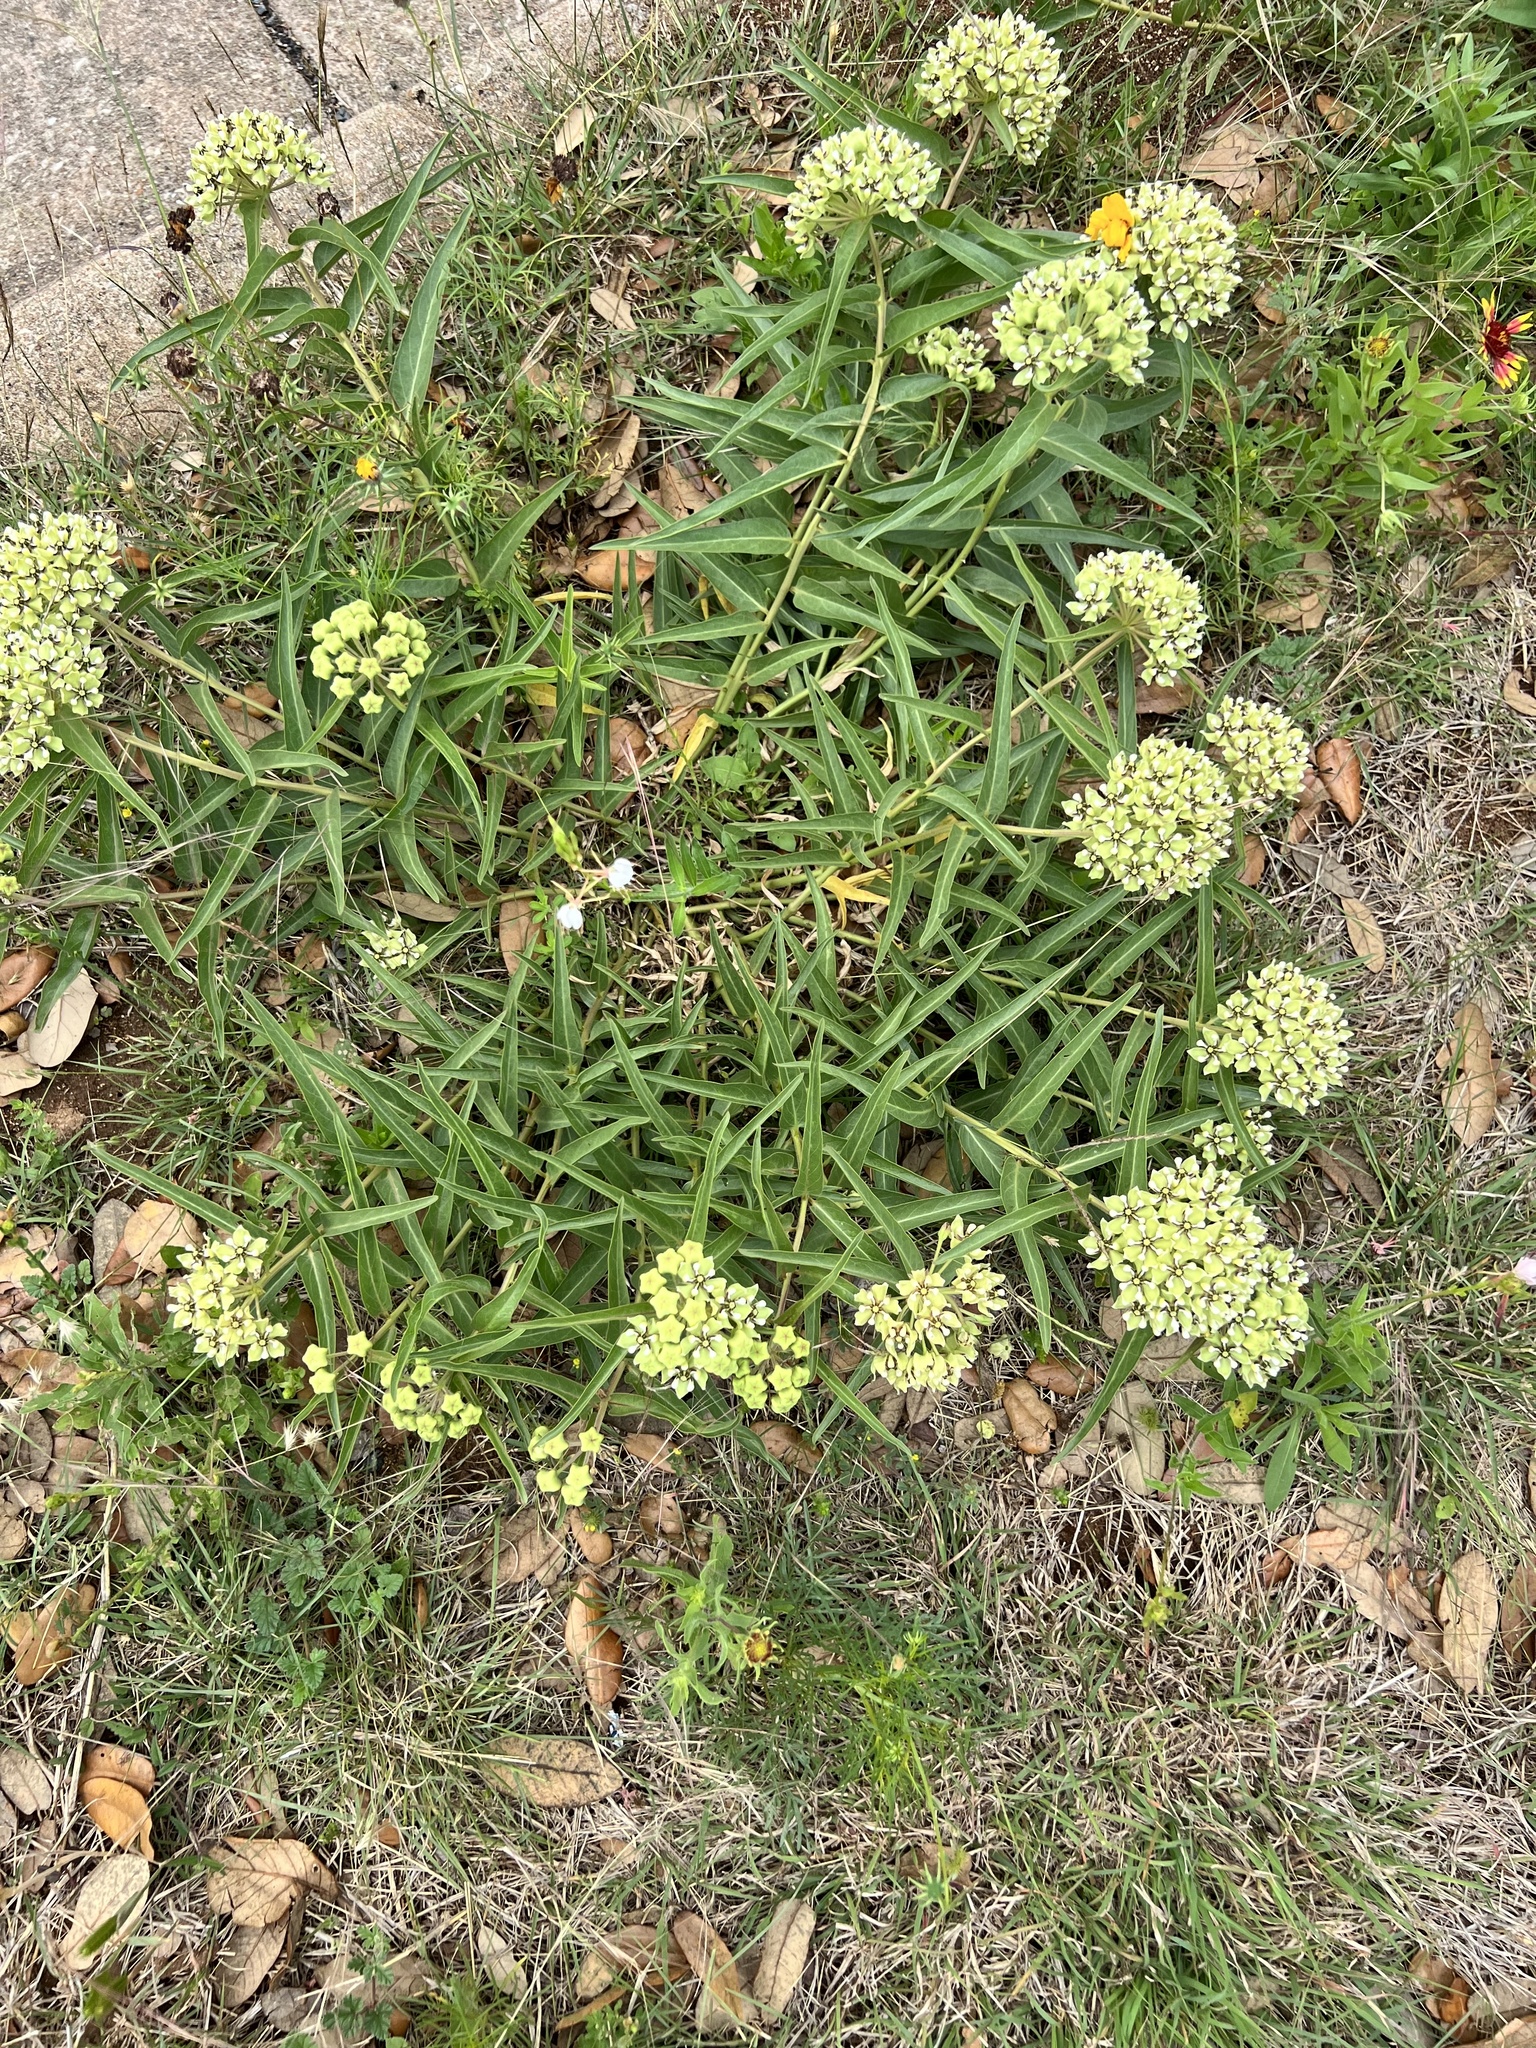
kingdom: Plantae
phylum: Tracheophyta
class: Magnoliopsida
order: Gentianales
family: Apocynaceae
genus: Asclepias
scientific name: Asclepias asperula
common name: Antelope horns
